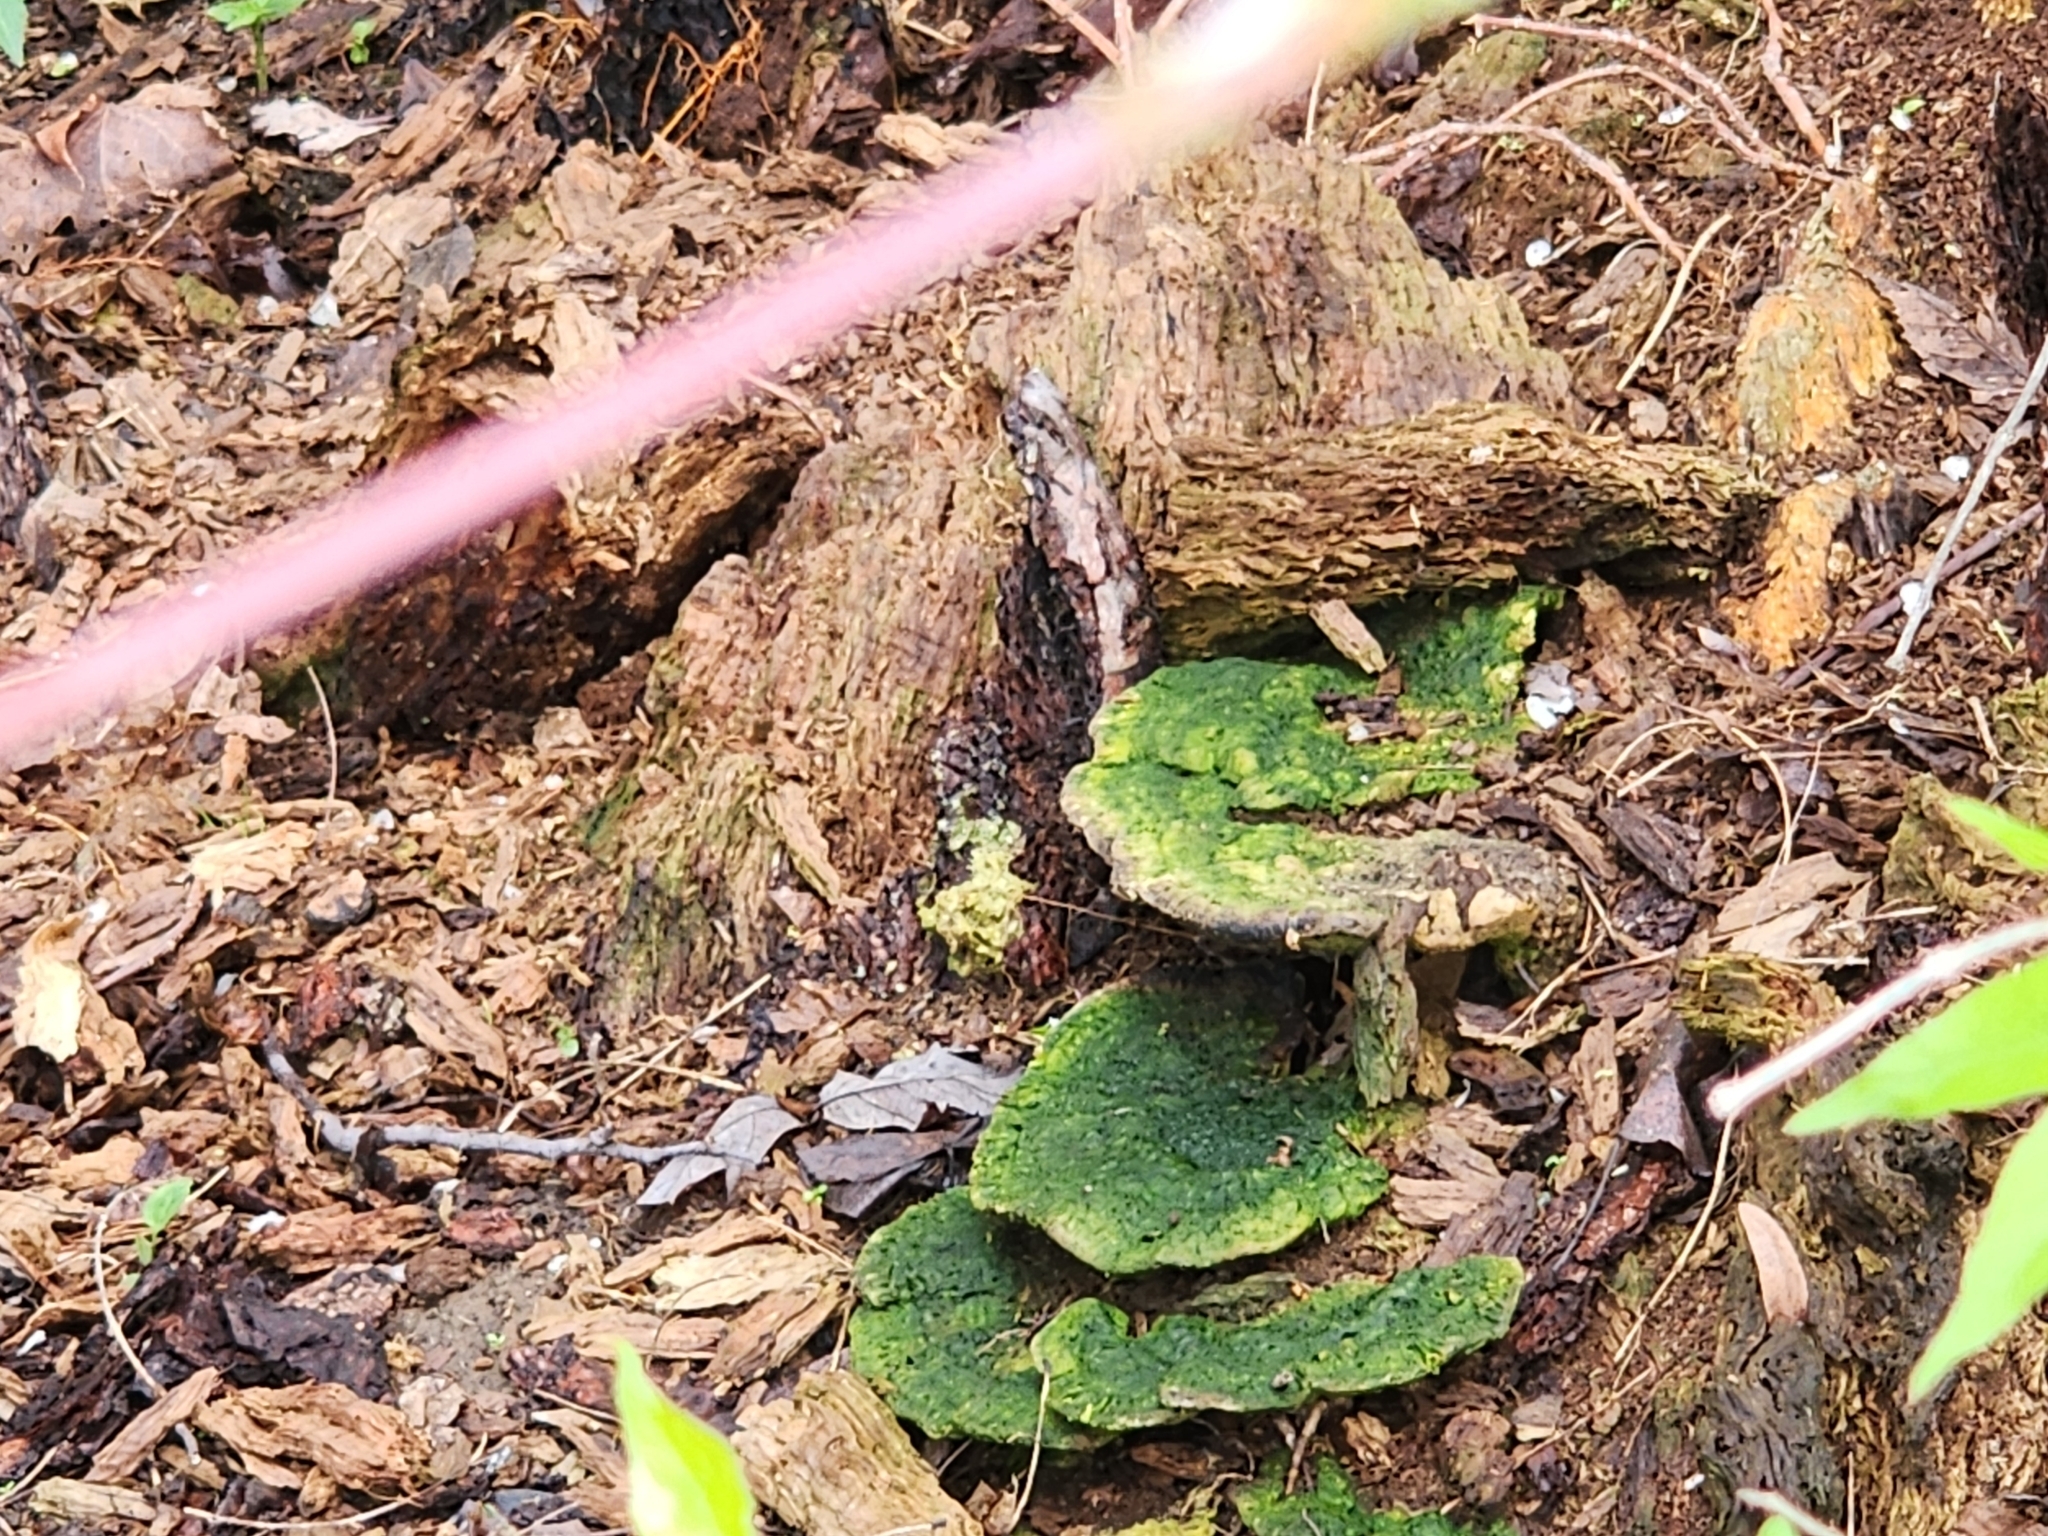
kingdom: Fungi
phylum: Basidiomycota
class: Agaricomycetes
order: Polyporales
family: Polyporaceae
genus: Trametes
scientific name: Trametes gibbosa
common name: Lumpy bracket
